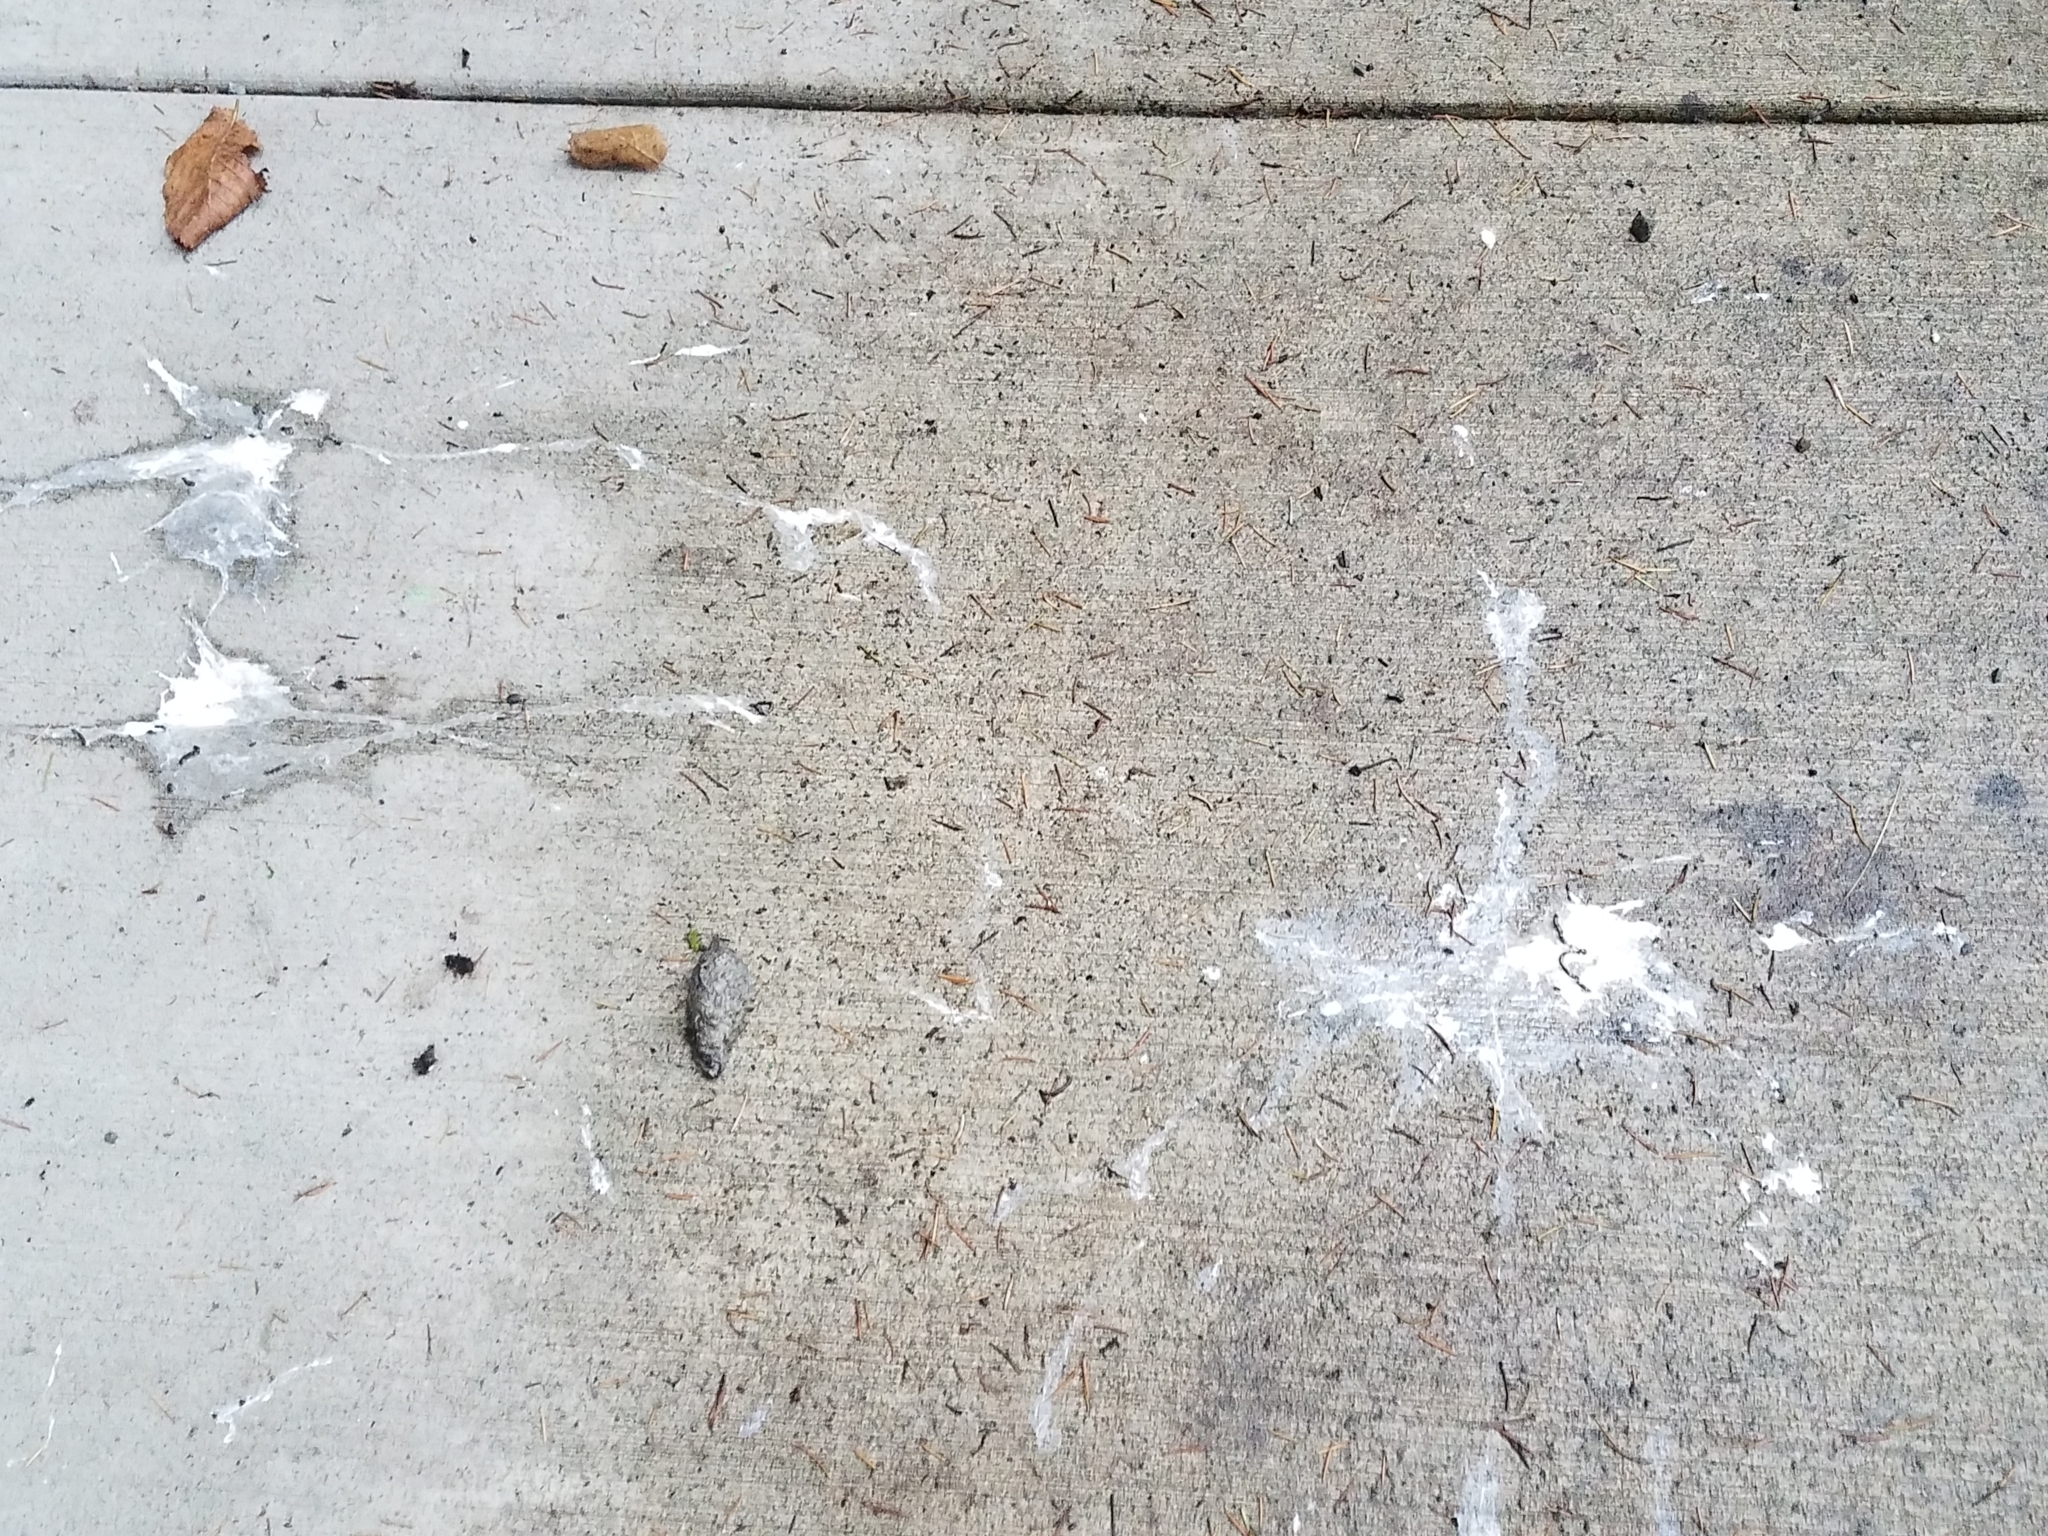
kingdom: Animalia
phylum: Chordata
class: Aves
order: Strigiformes
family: Strigidae
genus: Strix
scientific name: Strix varia
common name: Barred owl
